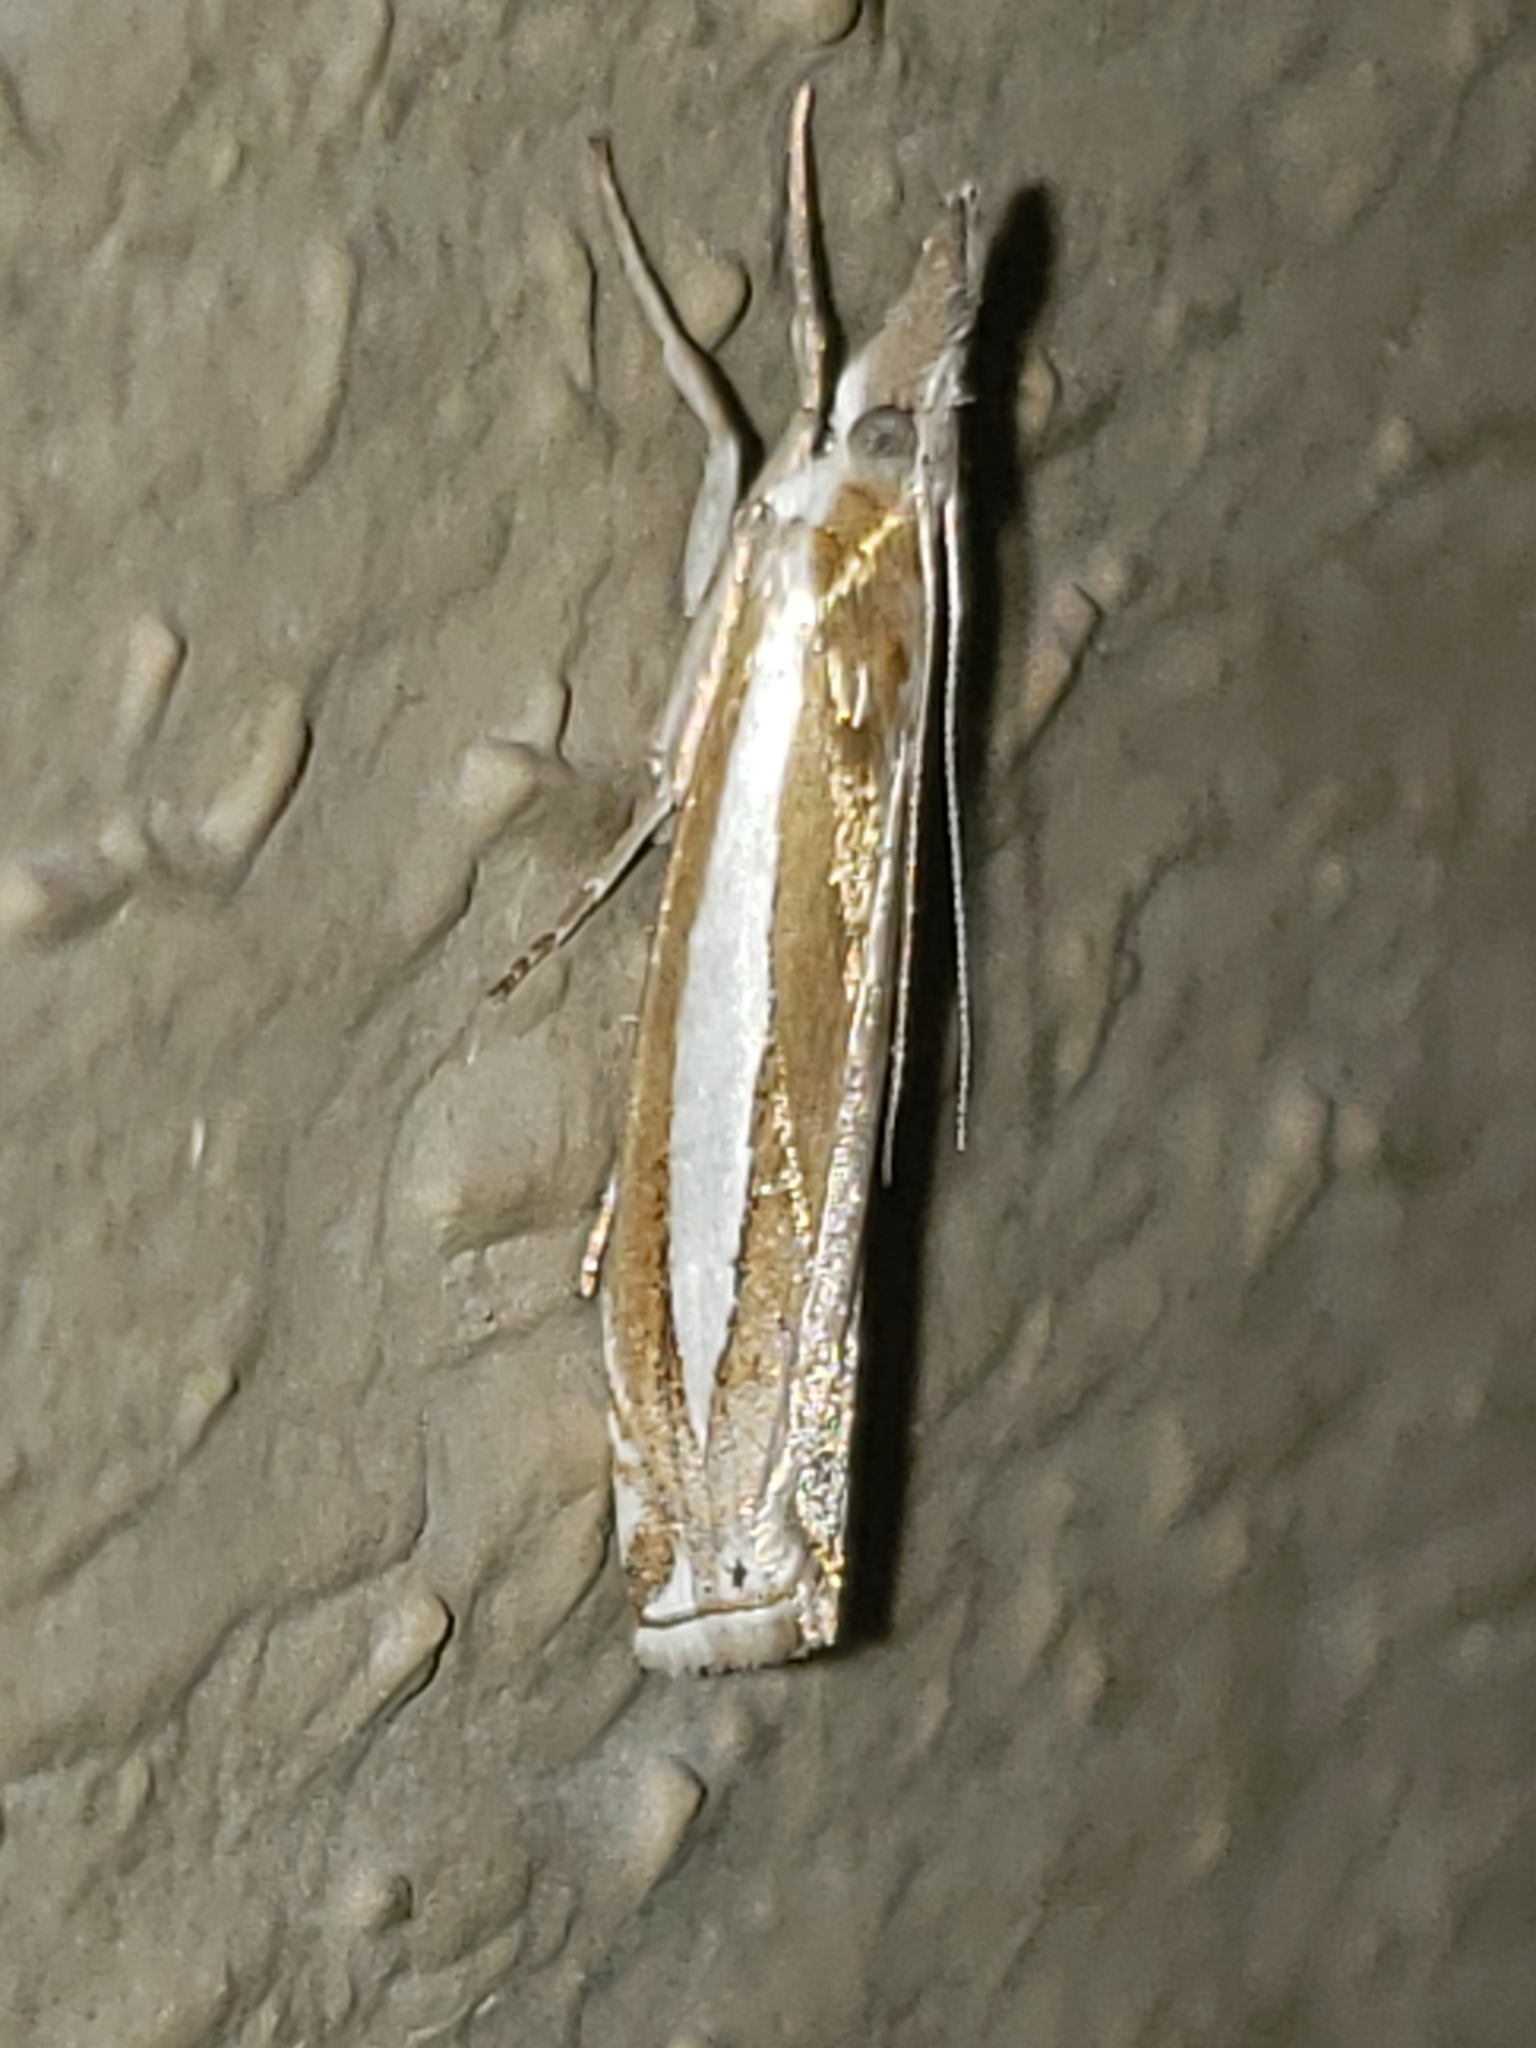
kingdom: Animalia
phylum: Arthropoda
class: Insecta
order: Lepidoptera
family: Crambidae
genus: Crambus
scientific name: Crambus praefectellus
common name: Common grass-veneer
